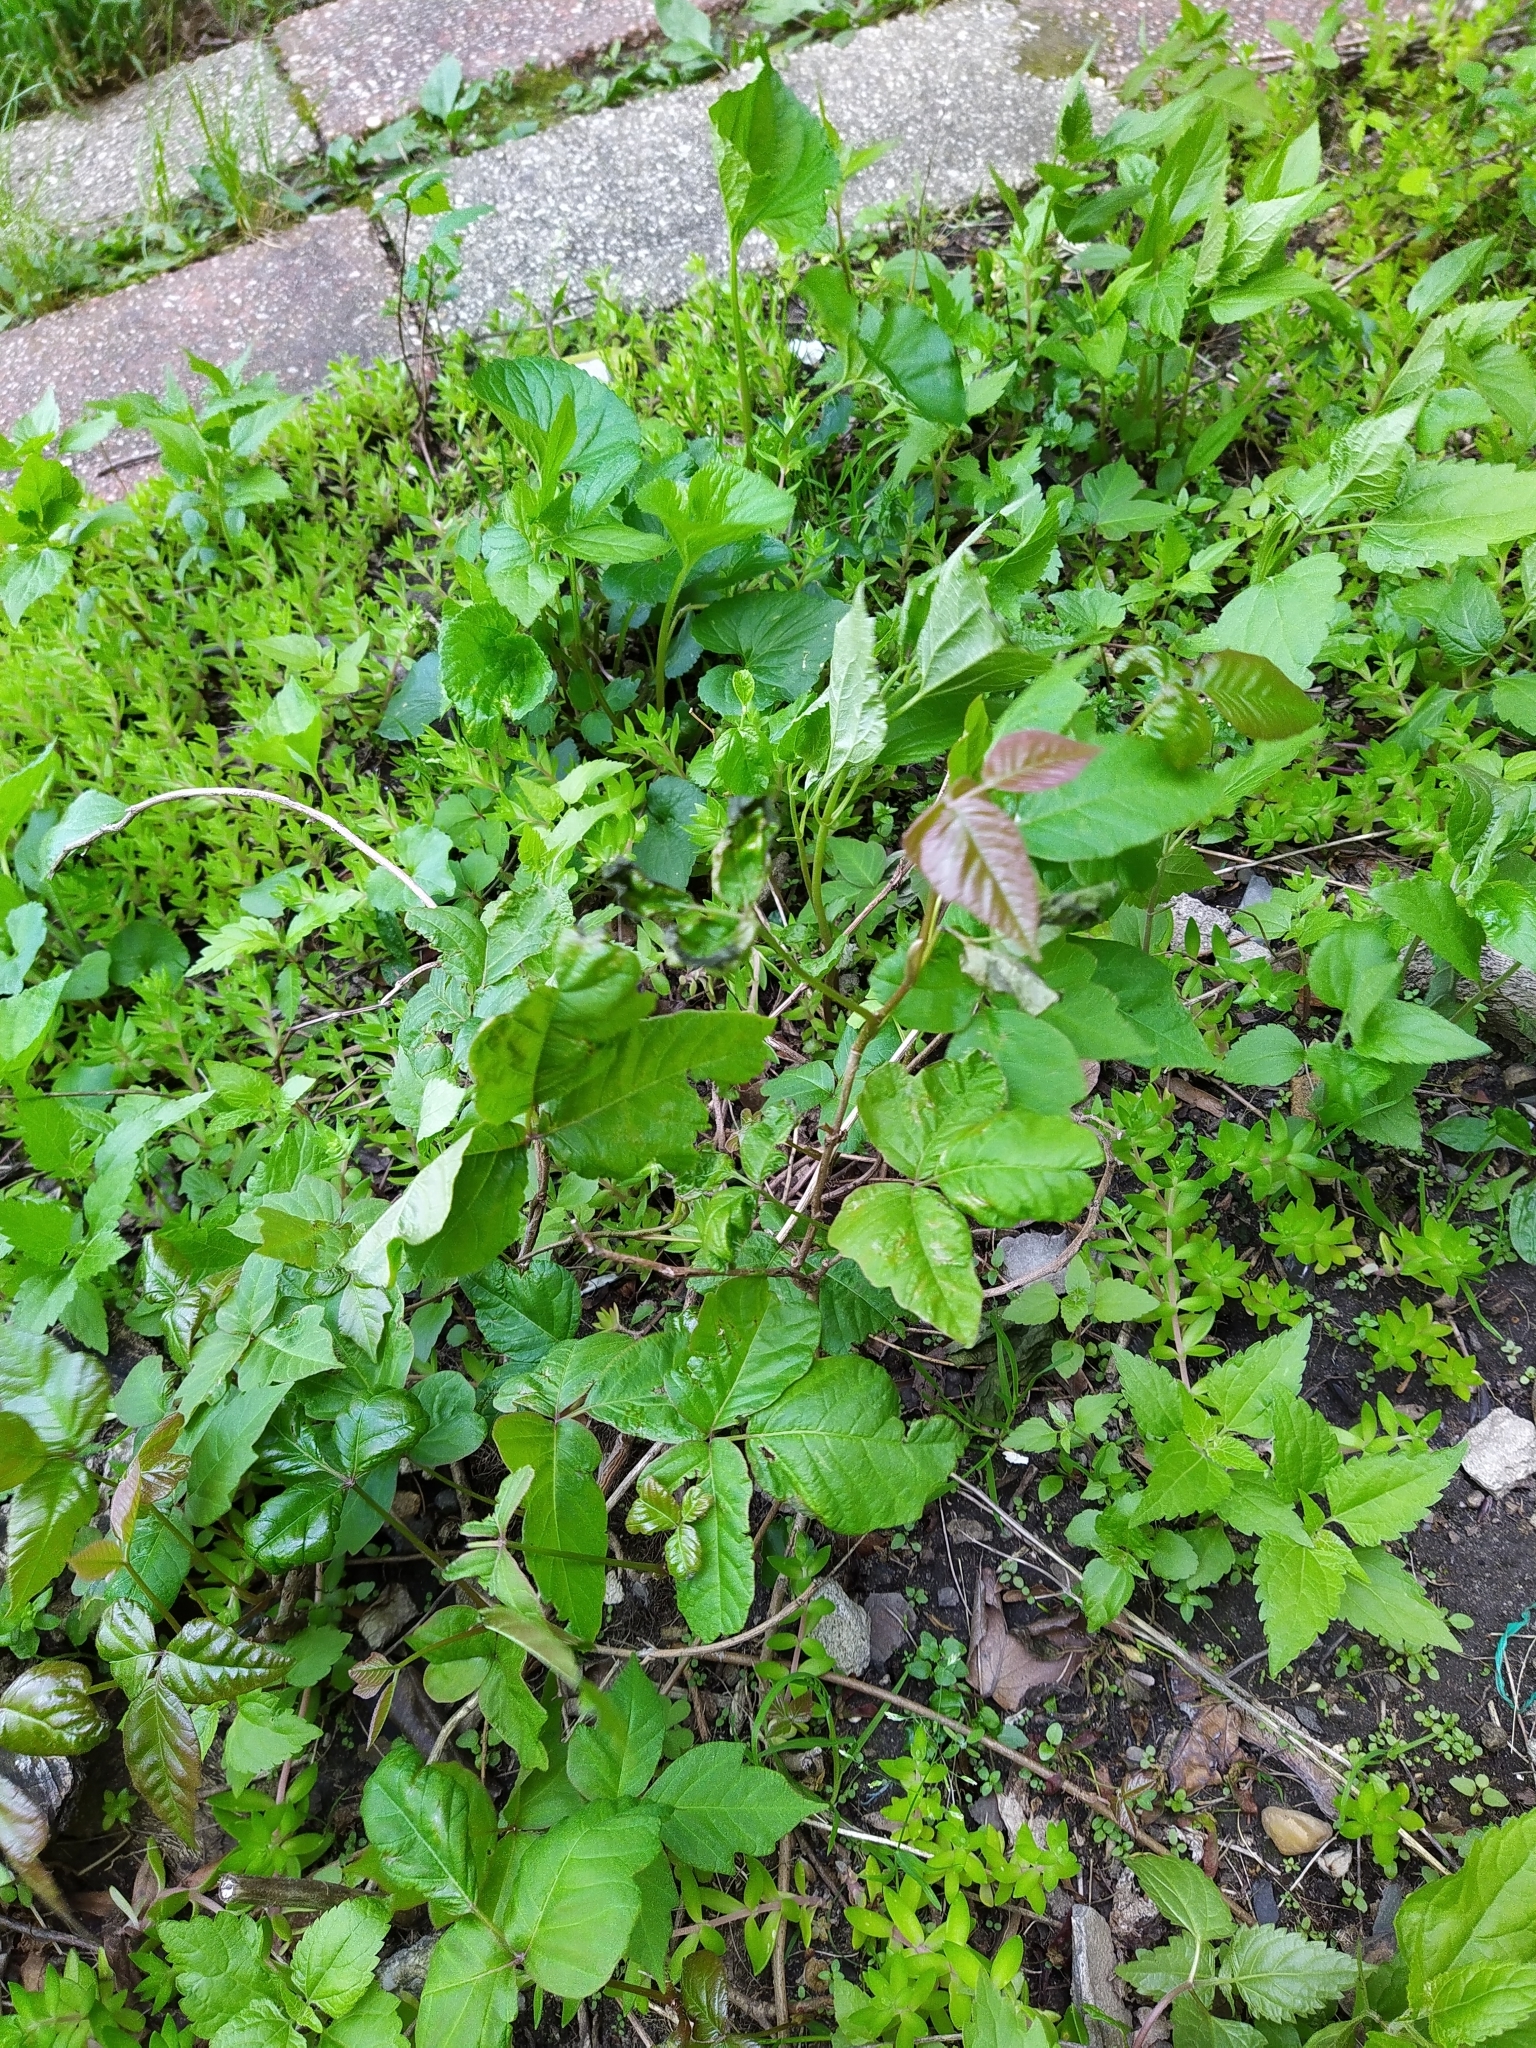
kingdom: Plantae
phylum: Tracheophyta
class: Magnoliopsida
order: Sapindales
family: Anacardiaceae
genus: Toxicodendron
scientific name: Toxicodendron radicans
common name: Poison ivy
